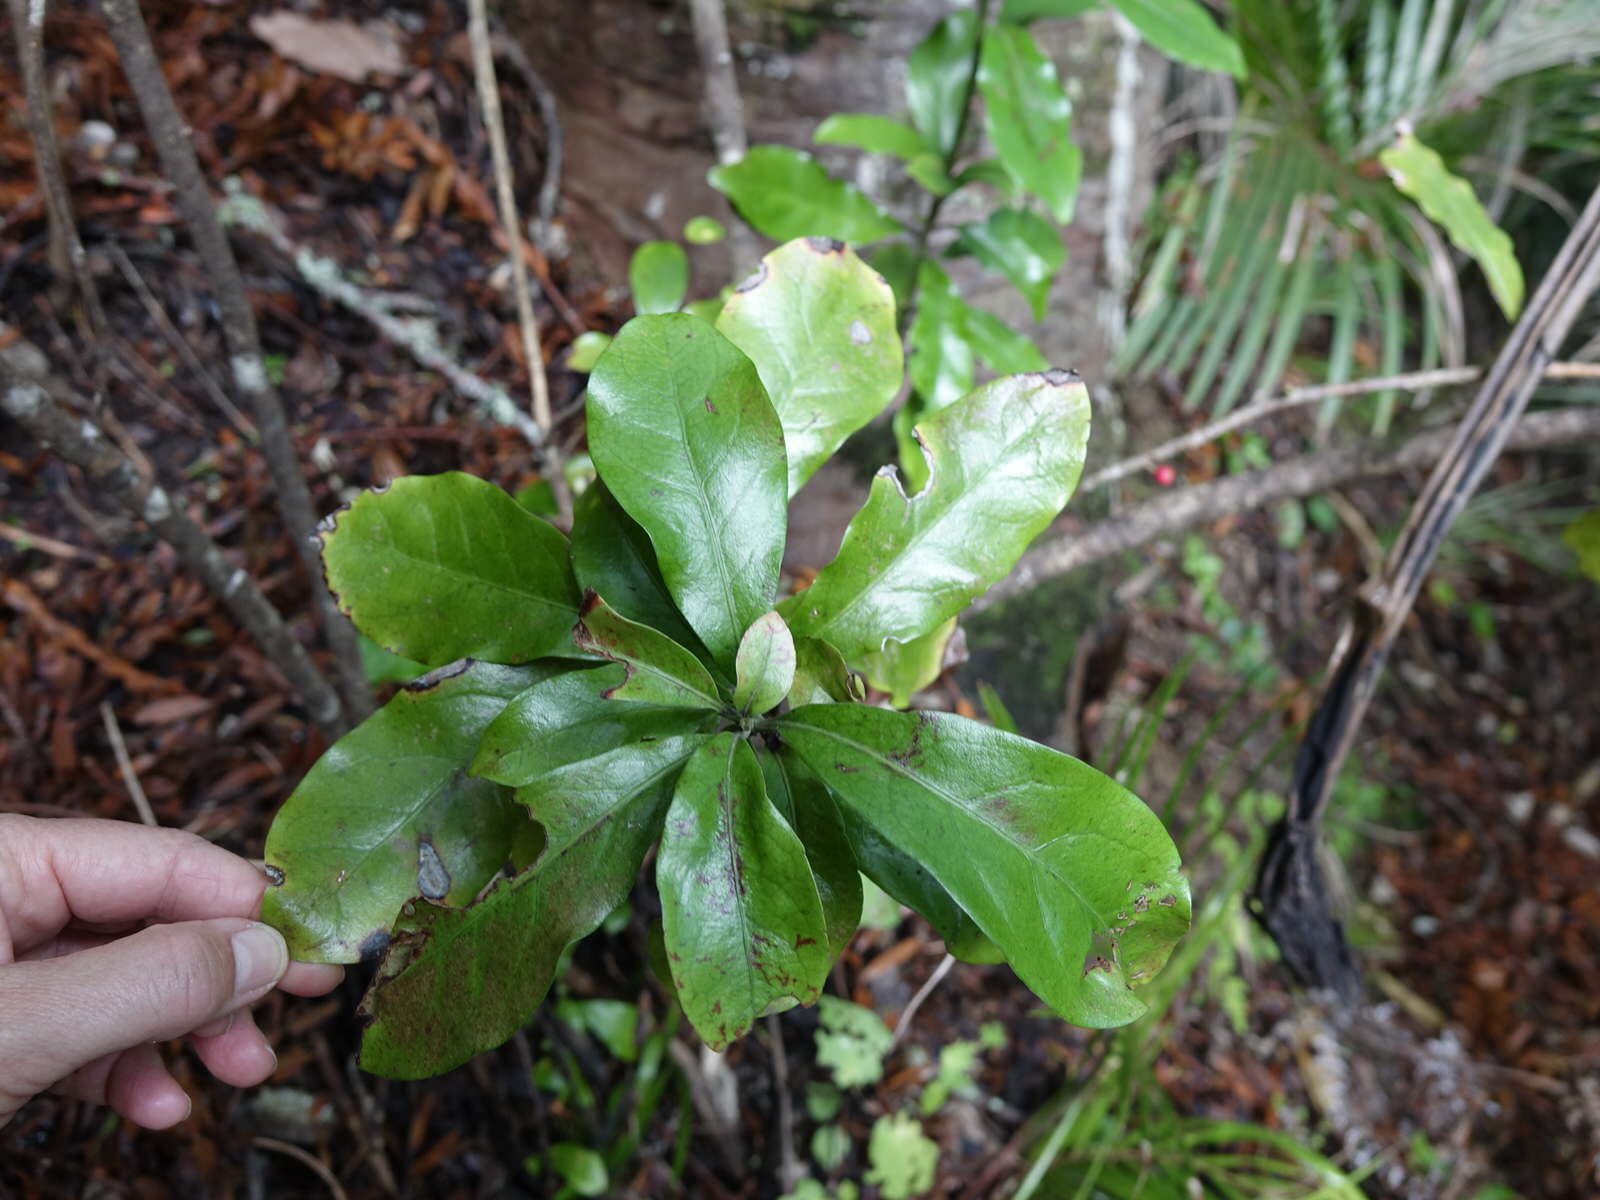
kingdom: Plantae
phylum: Tracheophyta
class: Magnoliopsida
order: Asterales
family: Alseuosmiaceae
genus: Alseuosmia
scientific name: Alseuosmia macrophylla
